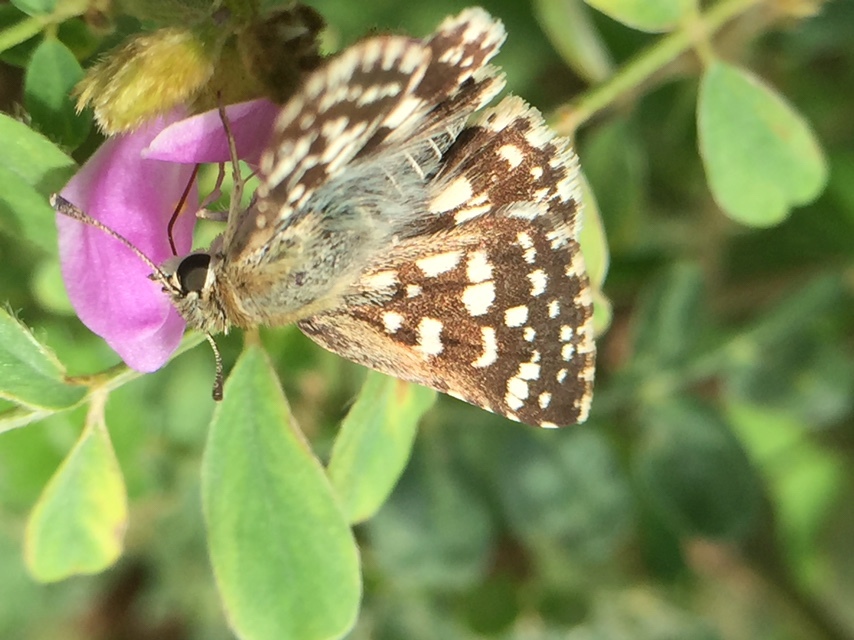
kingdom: Animalia
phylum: Arthropoda
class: Insecta
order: Lepidoptera
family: Hesperiidae
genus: Spialia
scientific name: Spialia galba
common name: Indian skipper
